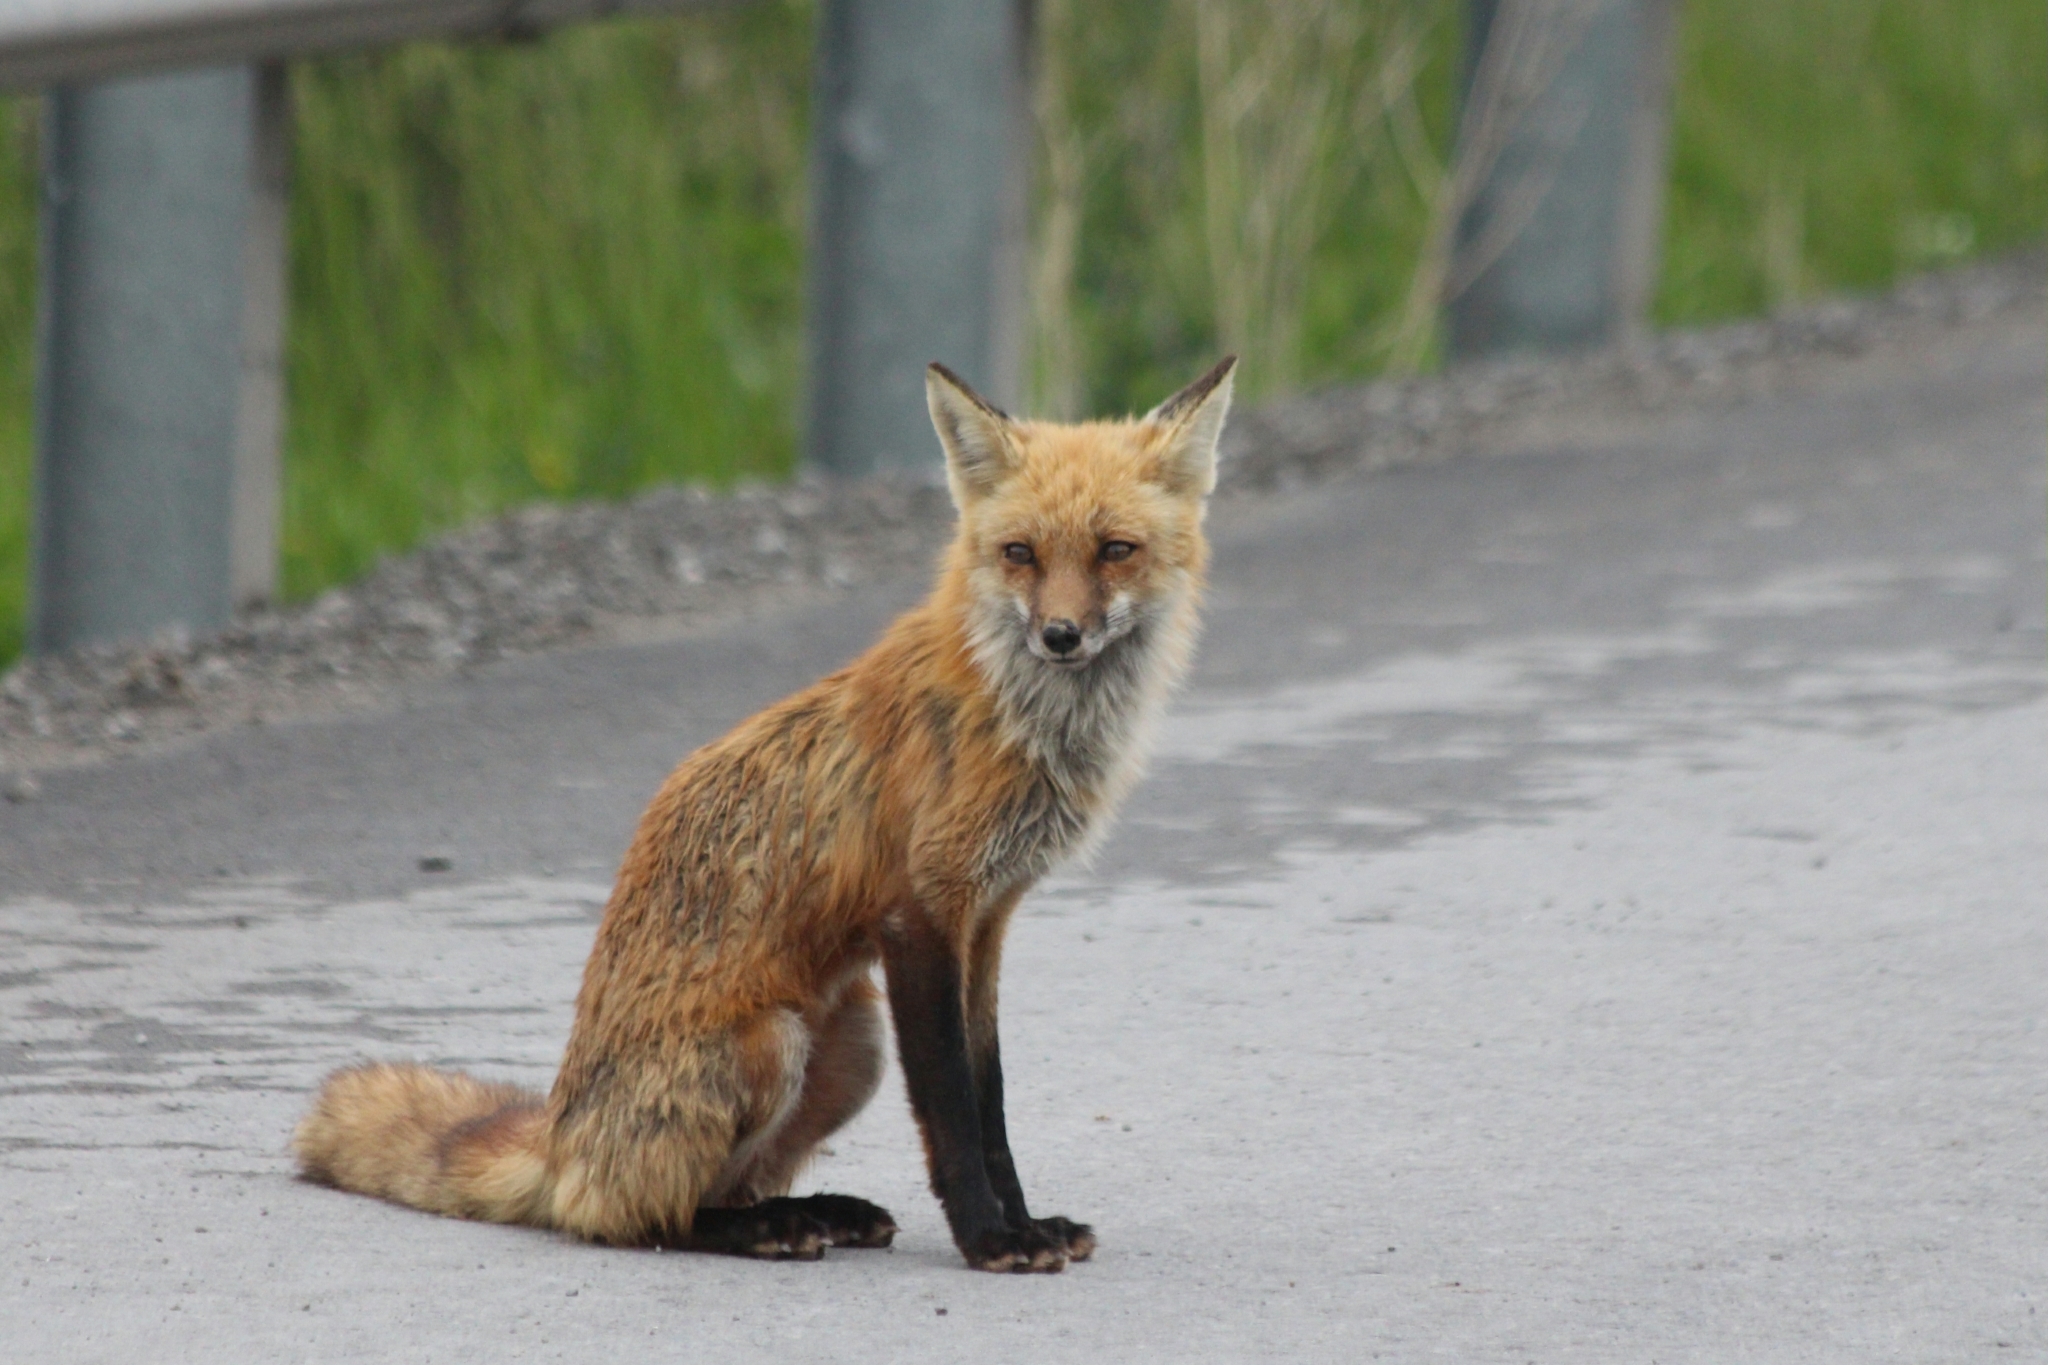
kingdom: Animalia
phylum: Chordata
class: Mammalia
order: Carnivora
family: Canidae
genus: Vulpes
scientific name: Vulpes vulpes
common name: Red fox
